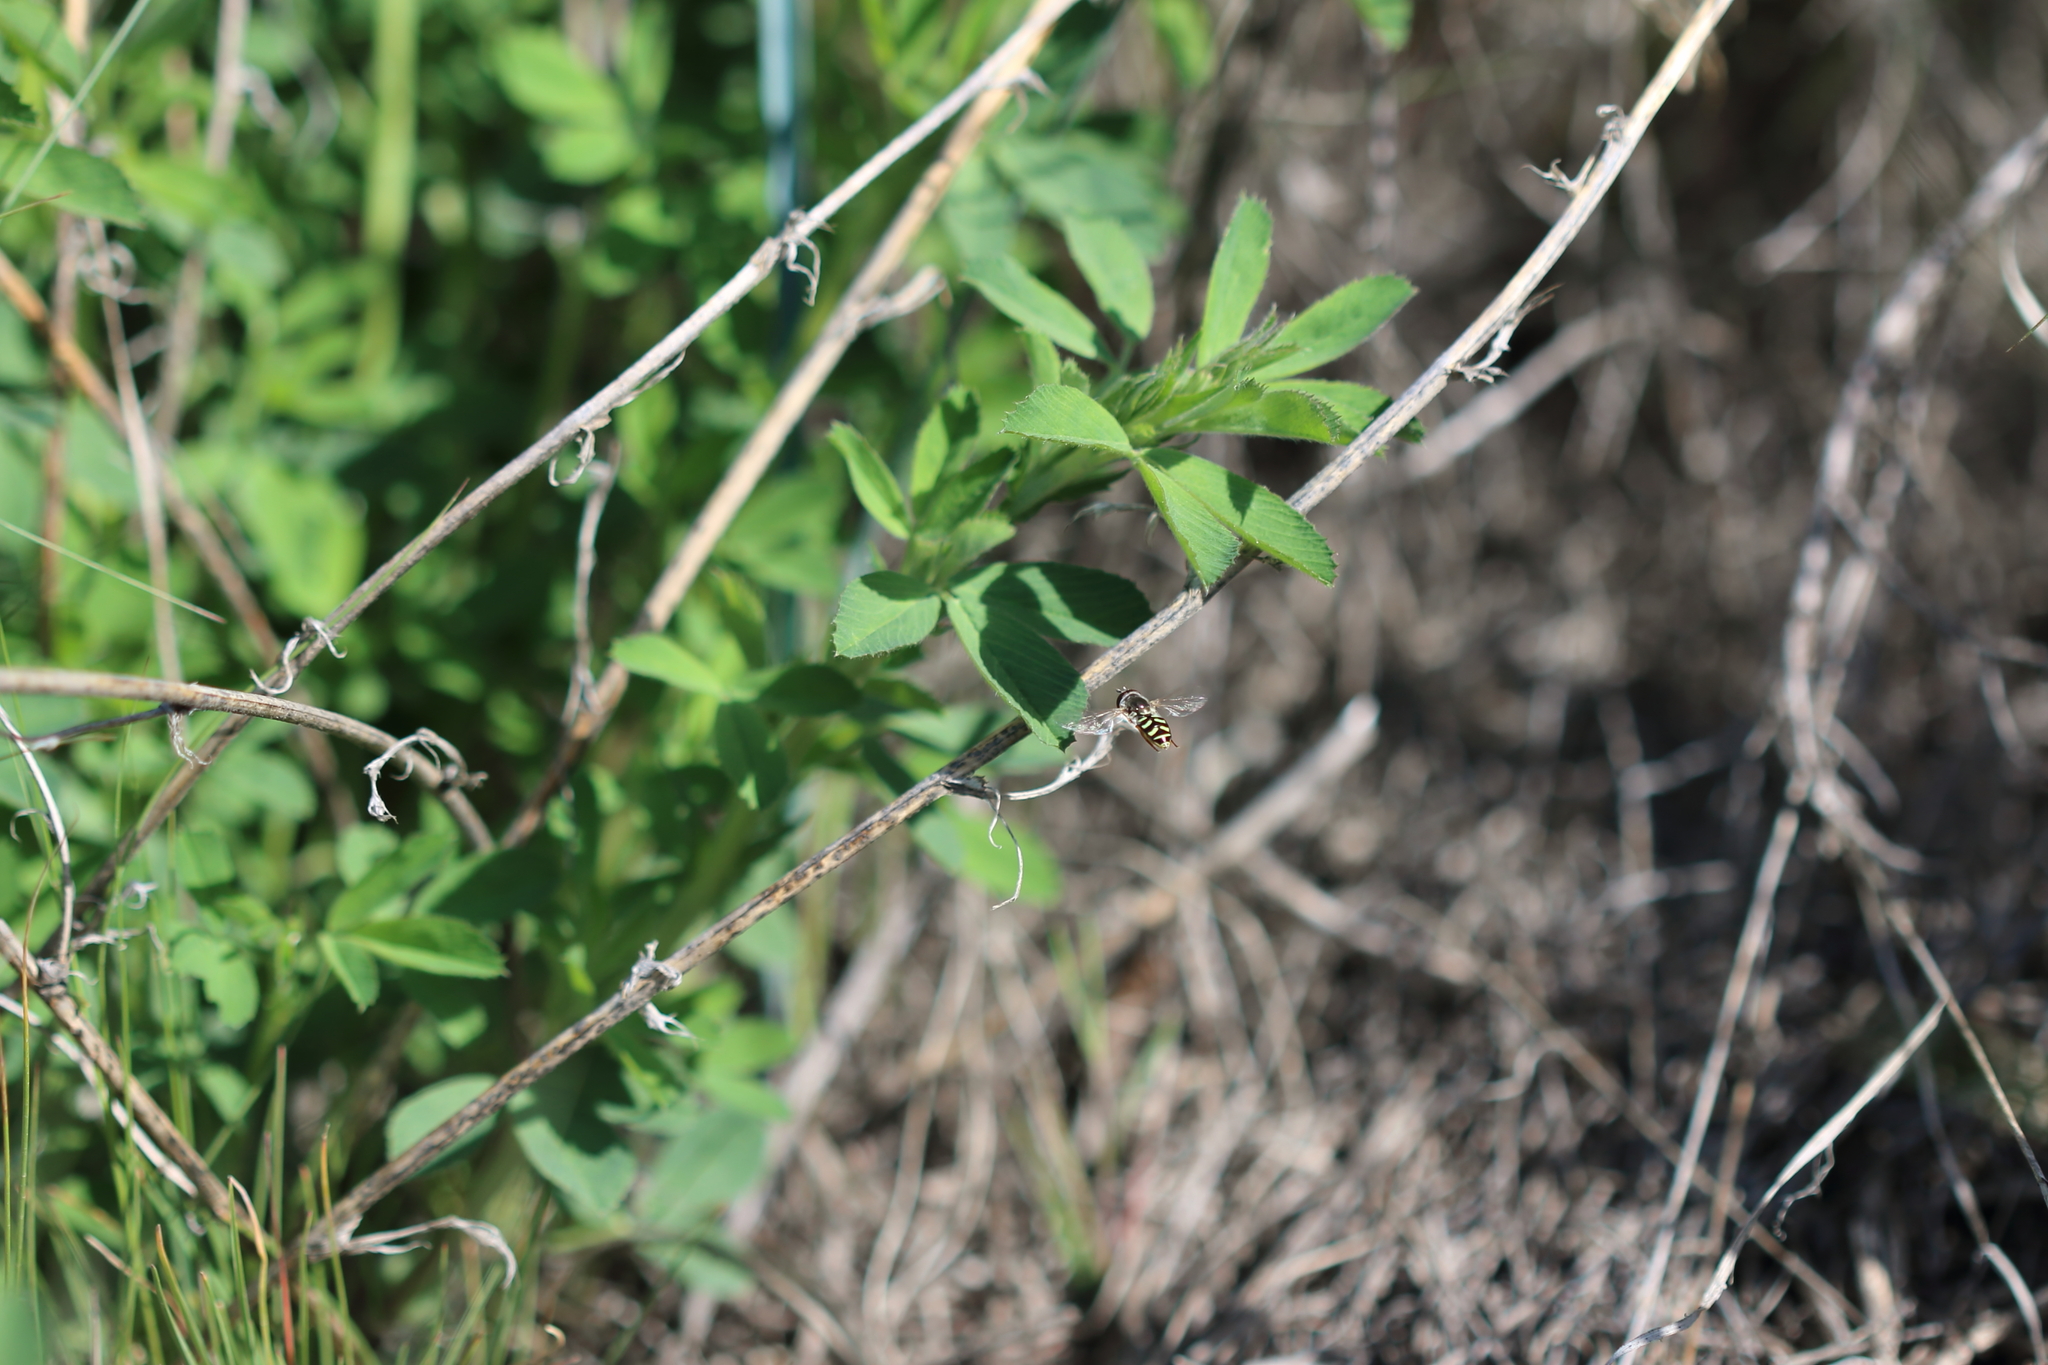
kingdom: Animalia
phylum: Arthropoda
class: Insecta
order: Diptera
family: Syrphidae
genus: Eupeodes
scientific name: Eupeodes volucris
